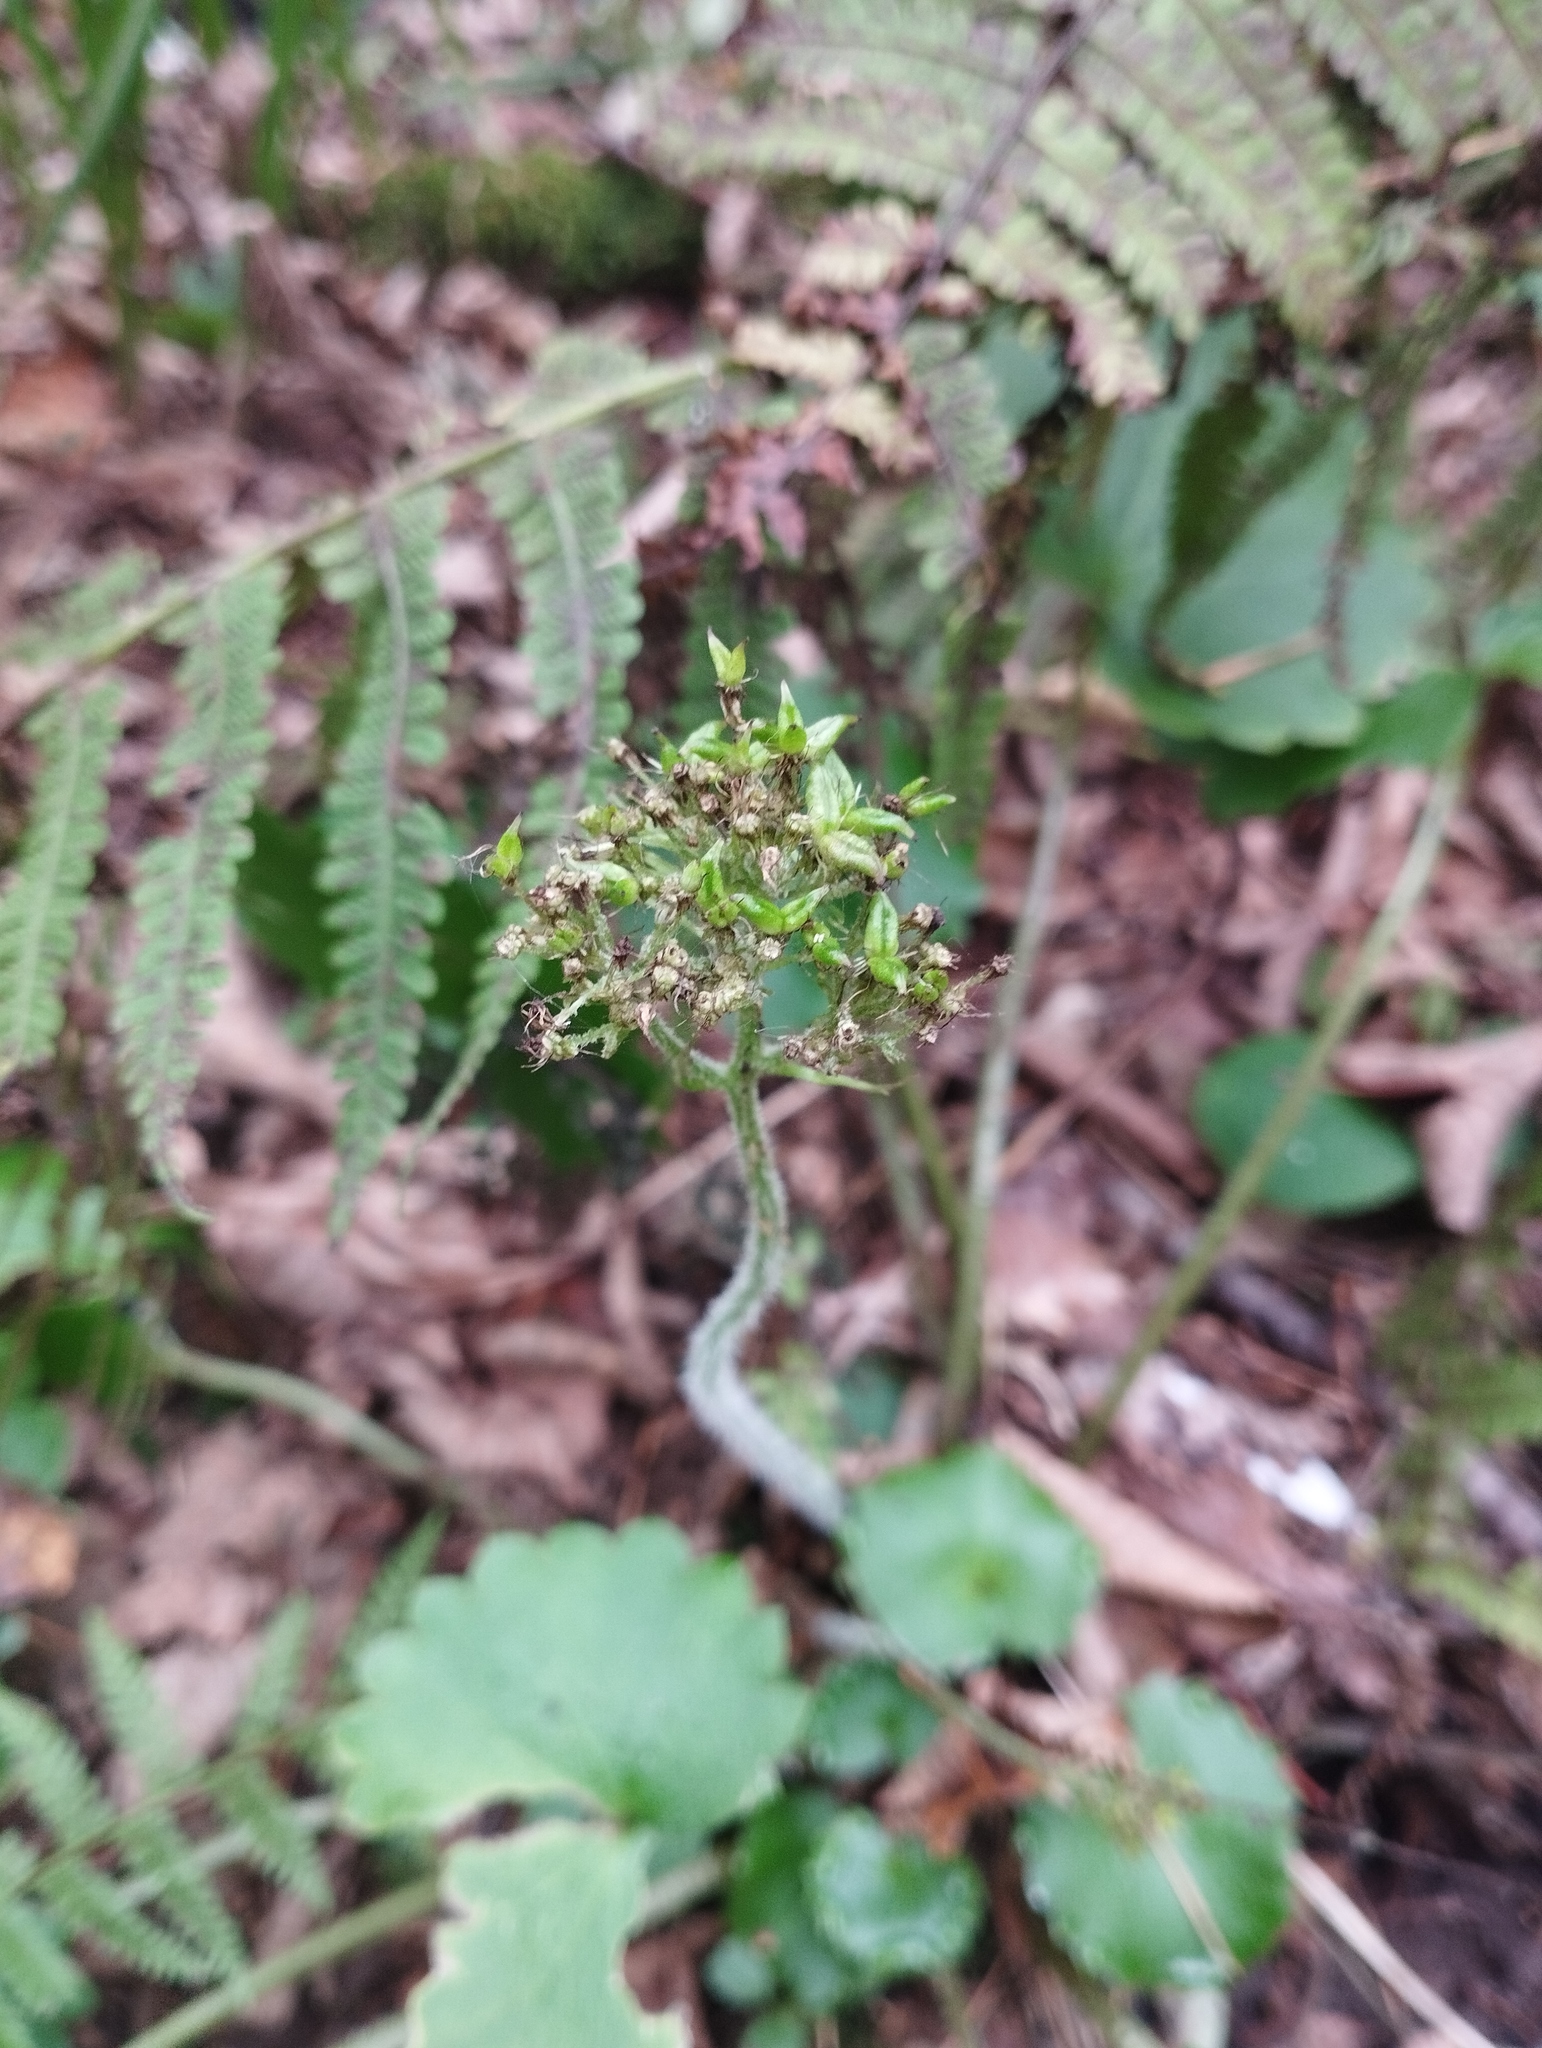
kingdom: Plantae
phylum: Tracheophyta
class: Magnoliopsida
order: Saxifragales
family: Saxifragaceae
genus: Micranthes
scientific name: Micranthes manchuriensis
